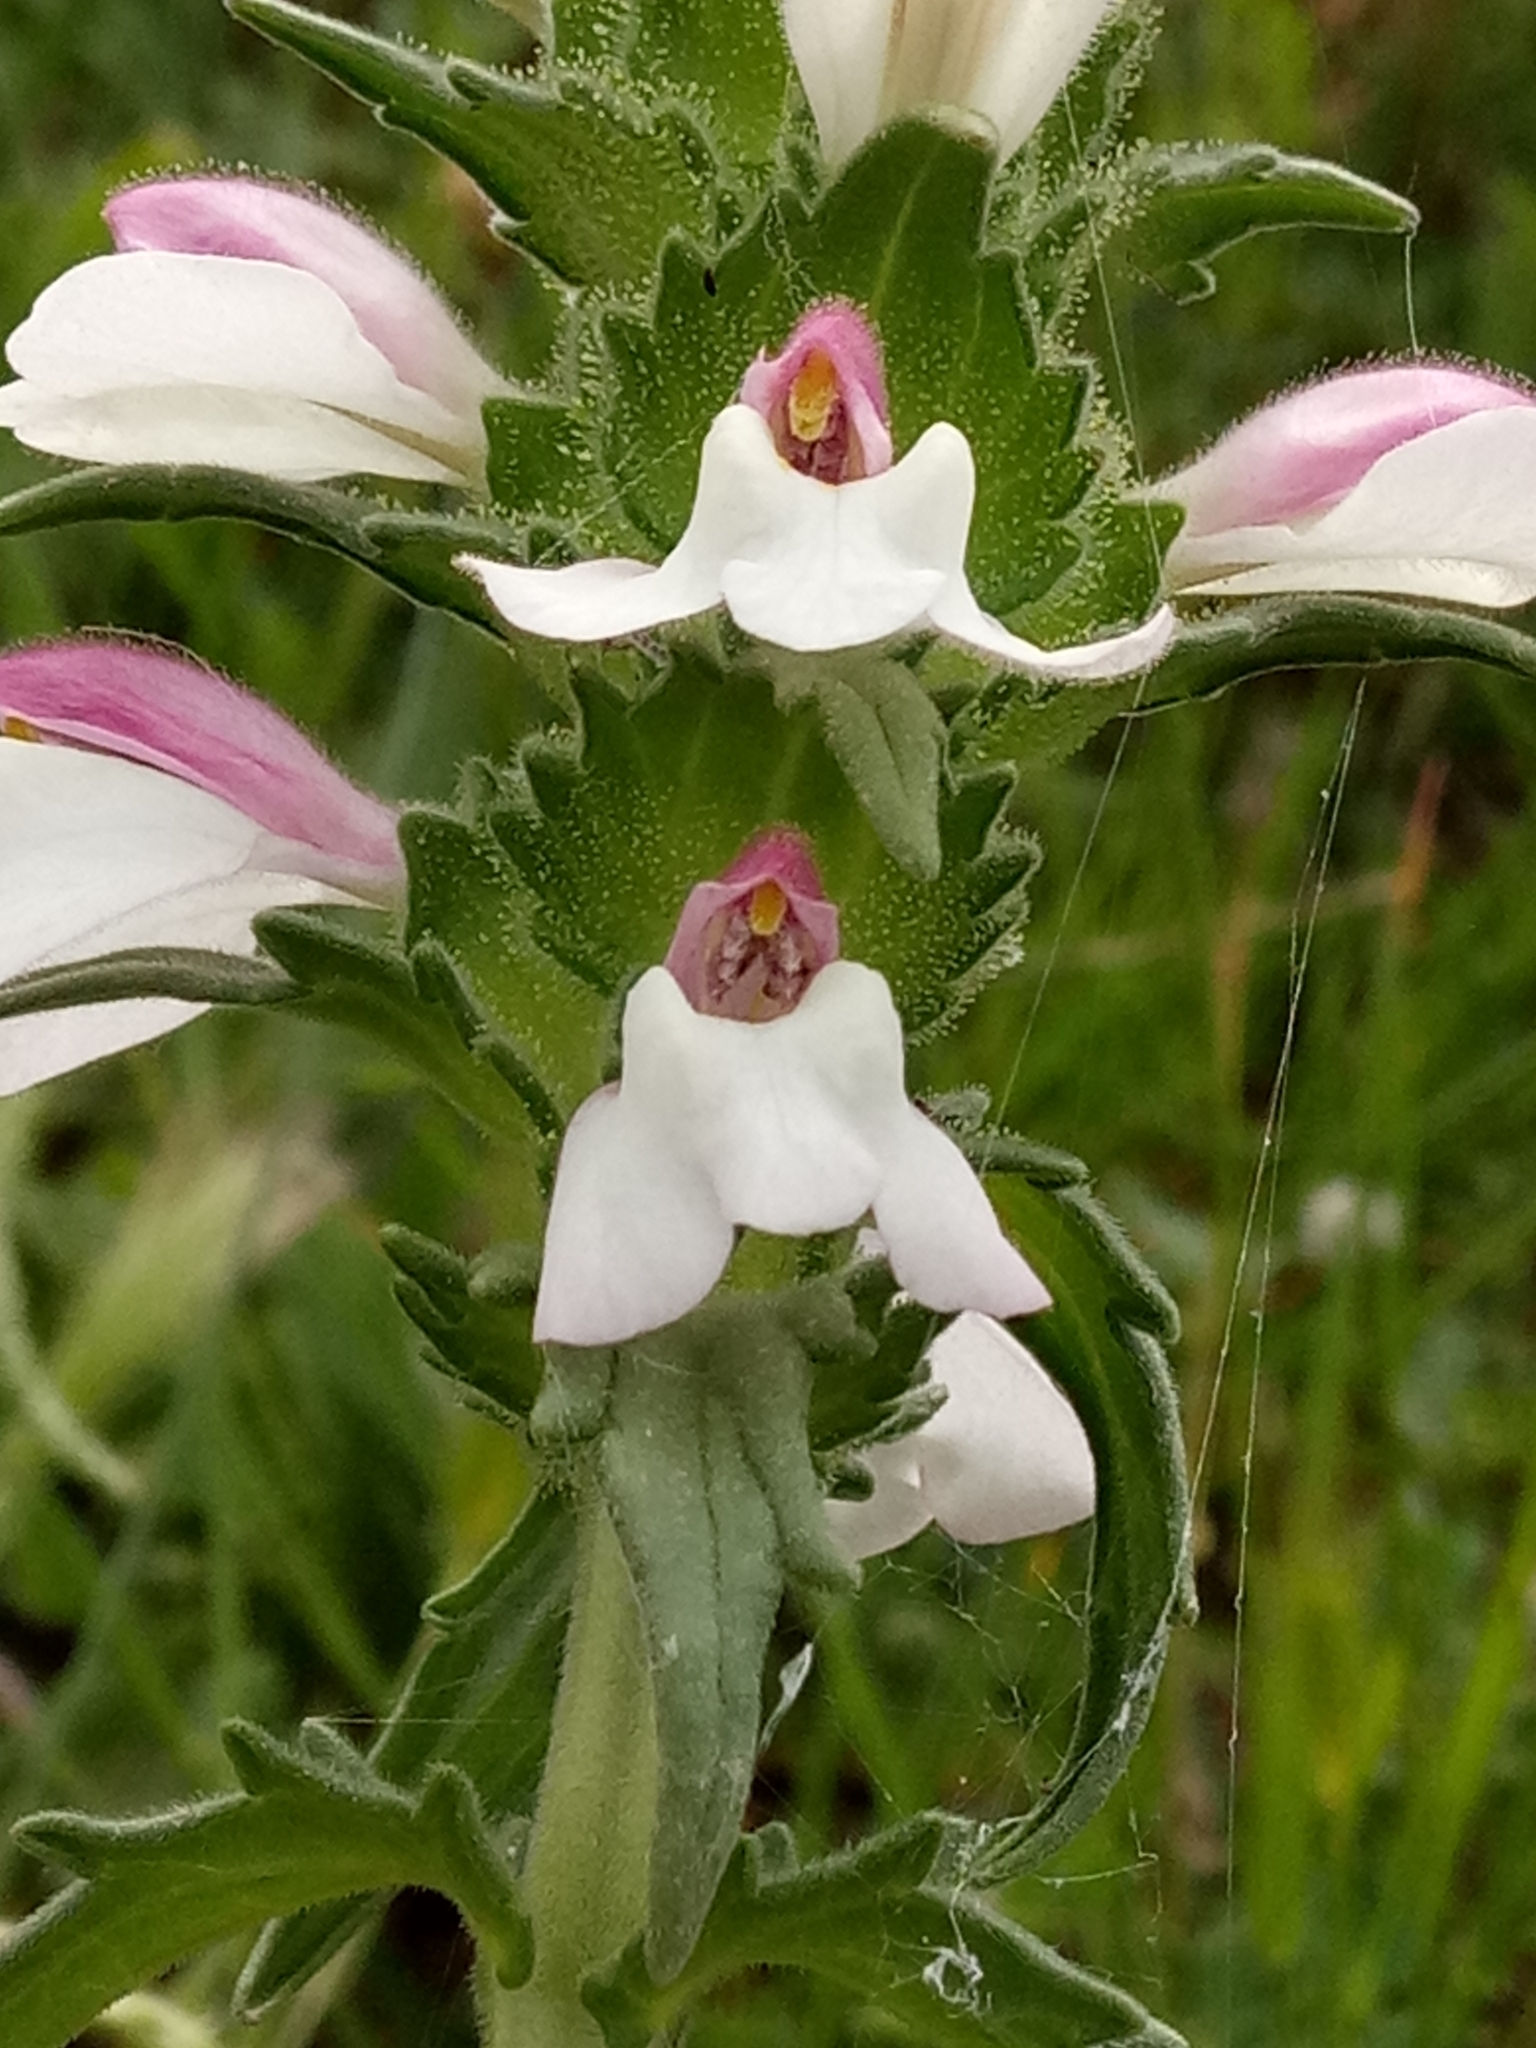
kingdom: Plantae
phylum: Tracheophyta
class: Magnoliopsida
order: Lamiales
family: Orobanchaceae
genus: Bellardia
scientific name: Bellardia trixago
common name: Mediterranean lineseed
